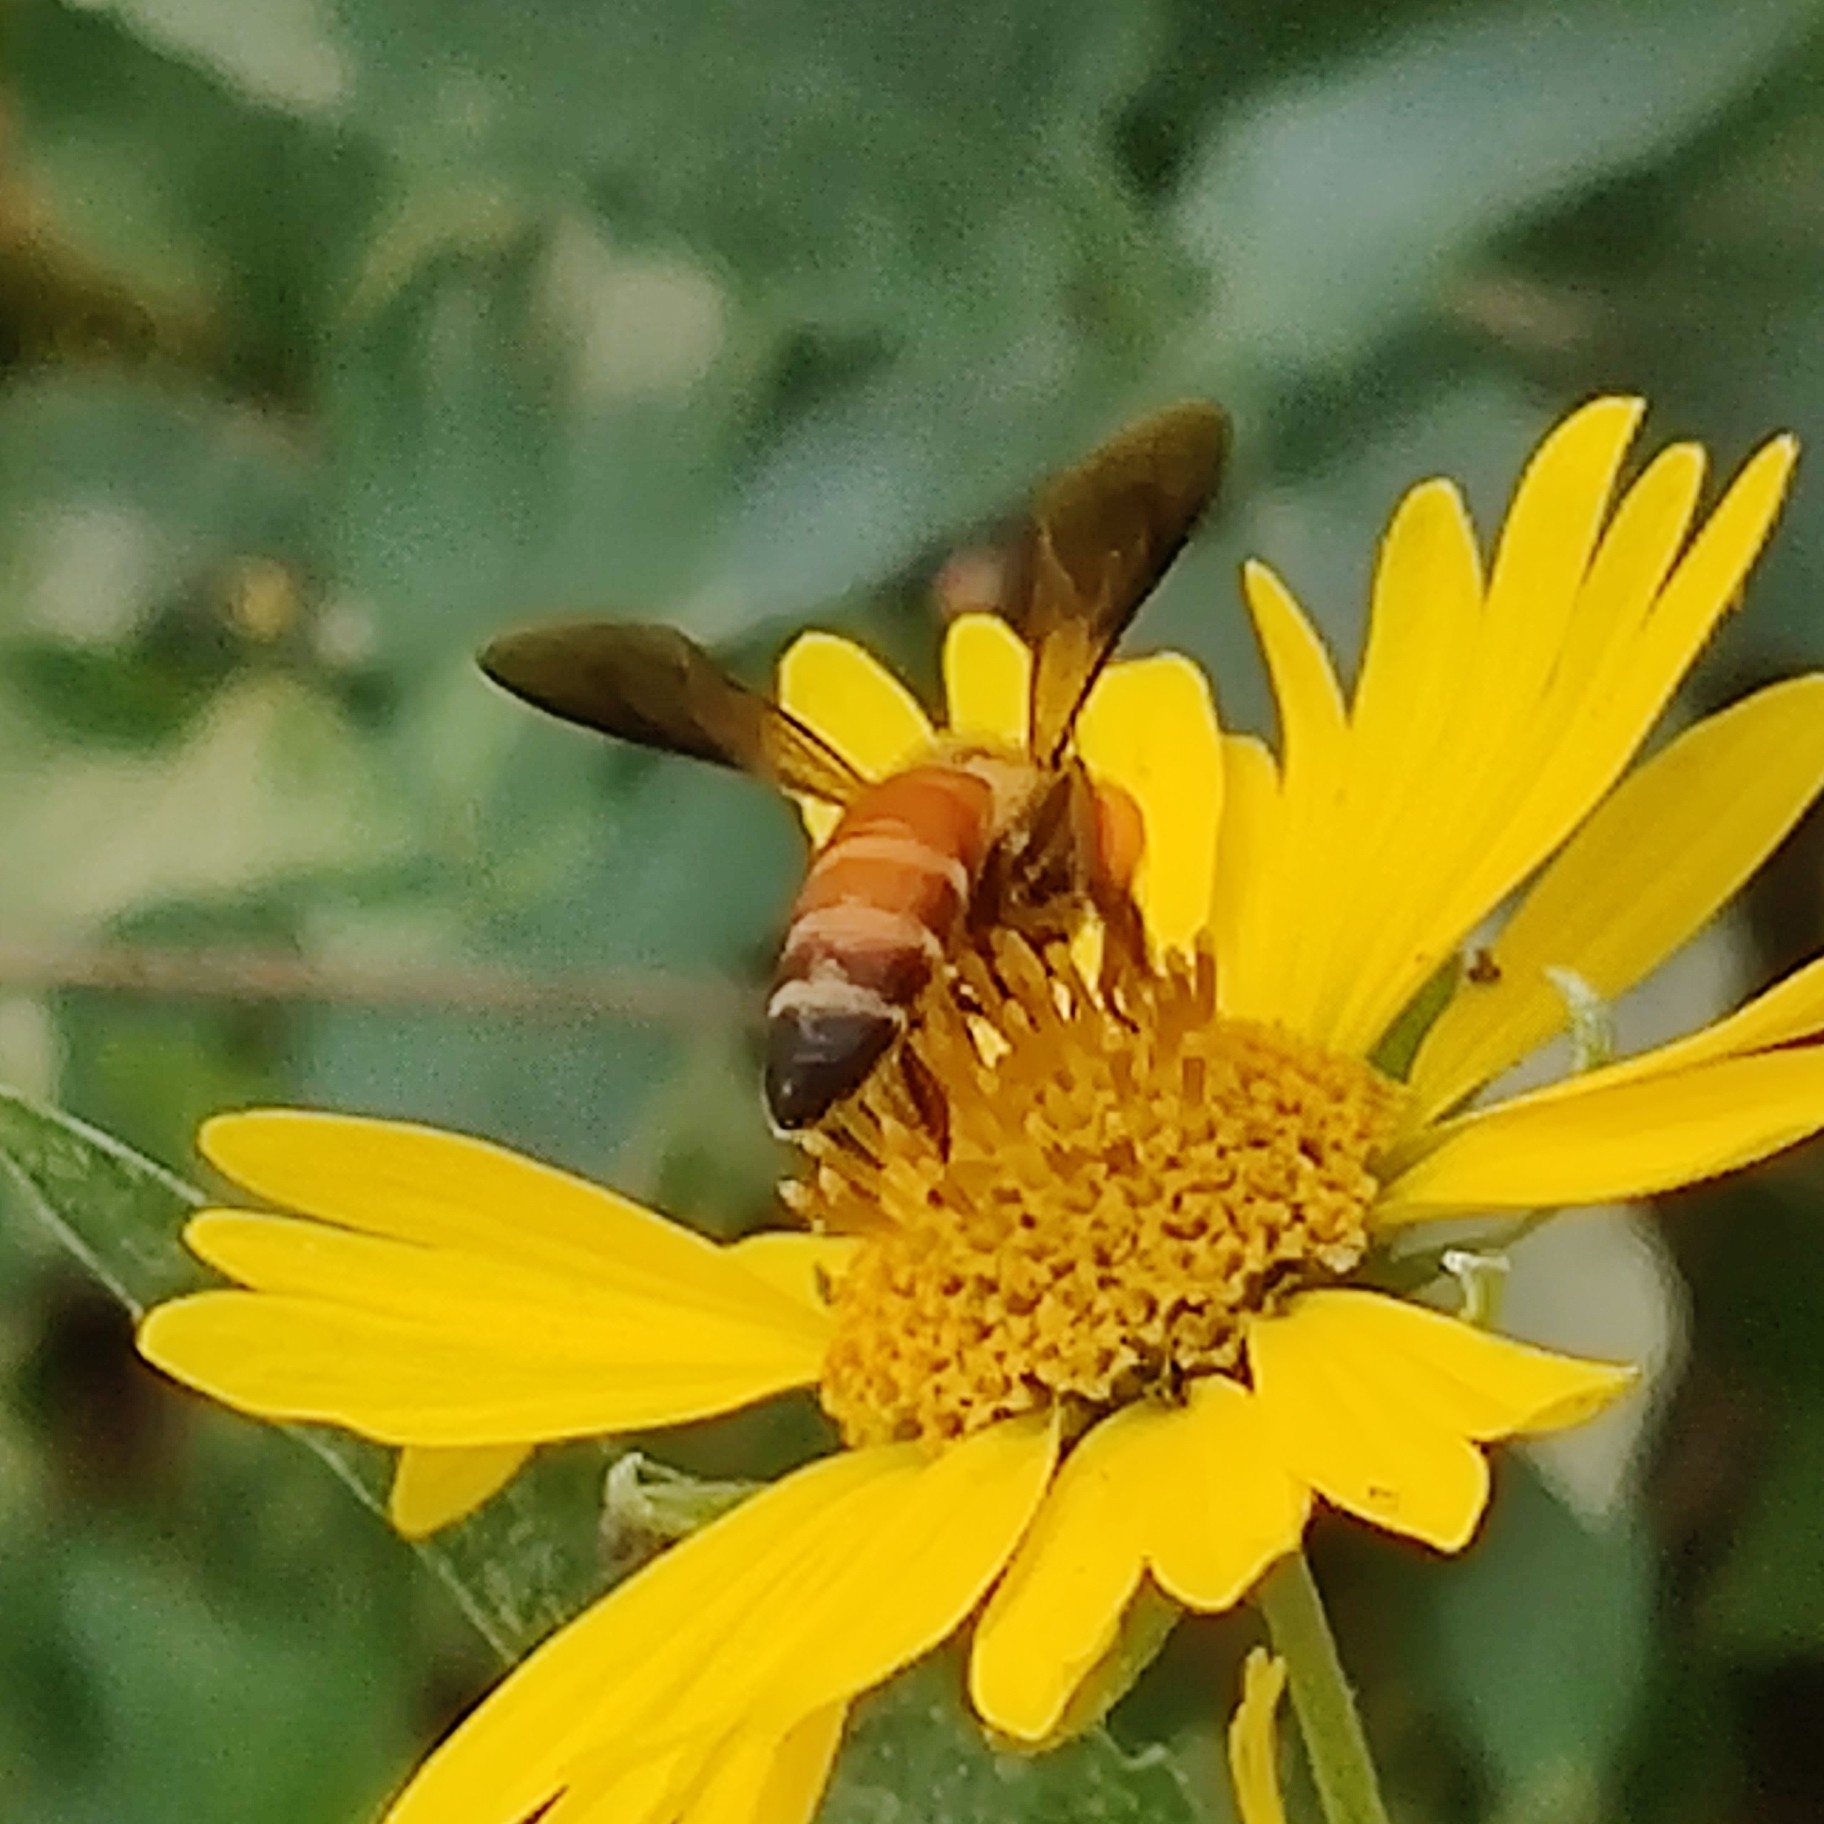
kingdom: Animalia
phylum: Arthropoda
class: Insecta
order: Hymenoptera
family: Apidae
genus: Apis
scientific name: Apis dorsata
